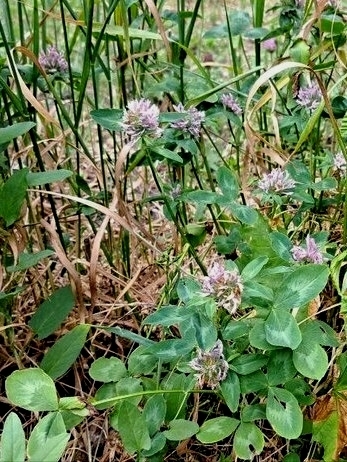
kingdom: Plantae
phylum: Tracheophyta
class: Magnoliopsida
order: Fabales
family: Fabaceae
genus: Trifolium
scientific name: Trifolium pratense
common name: Red clover
